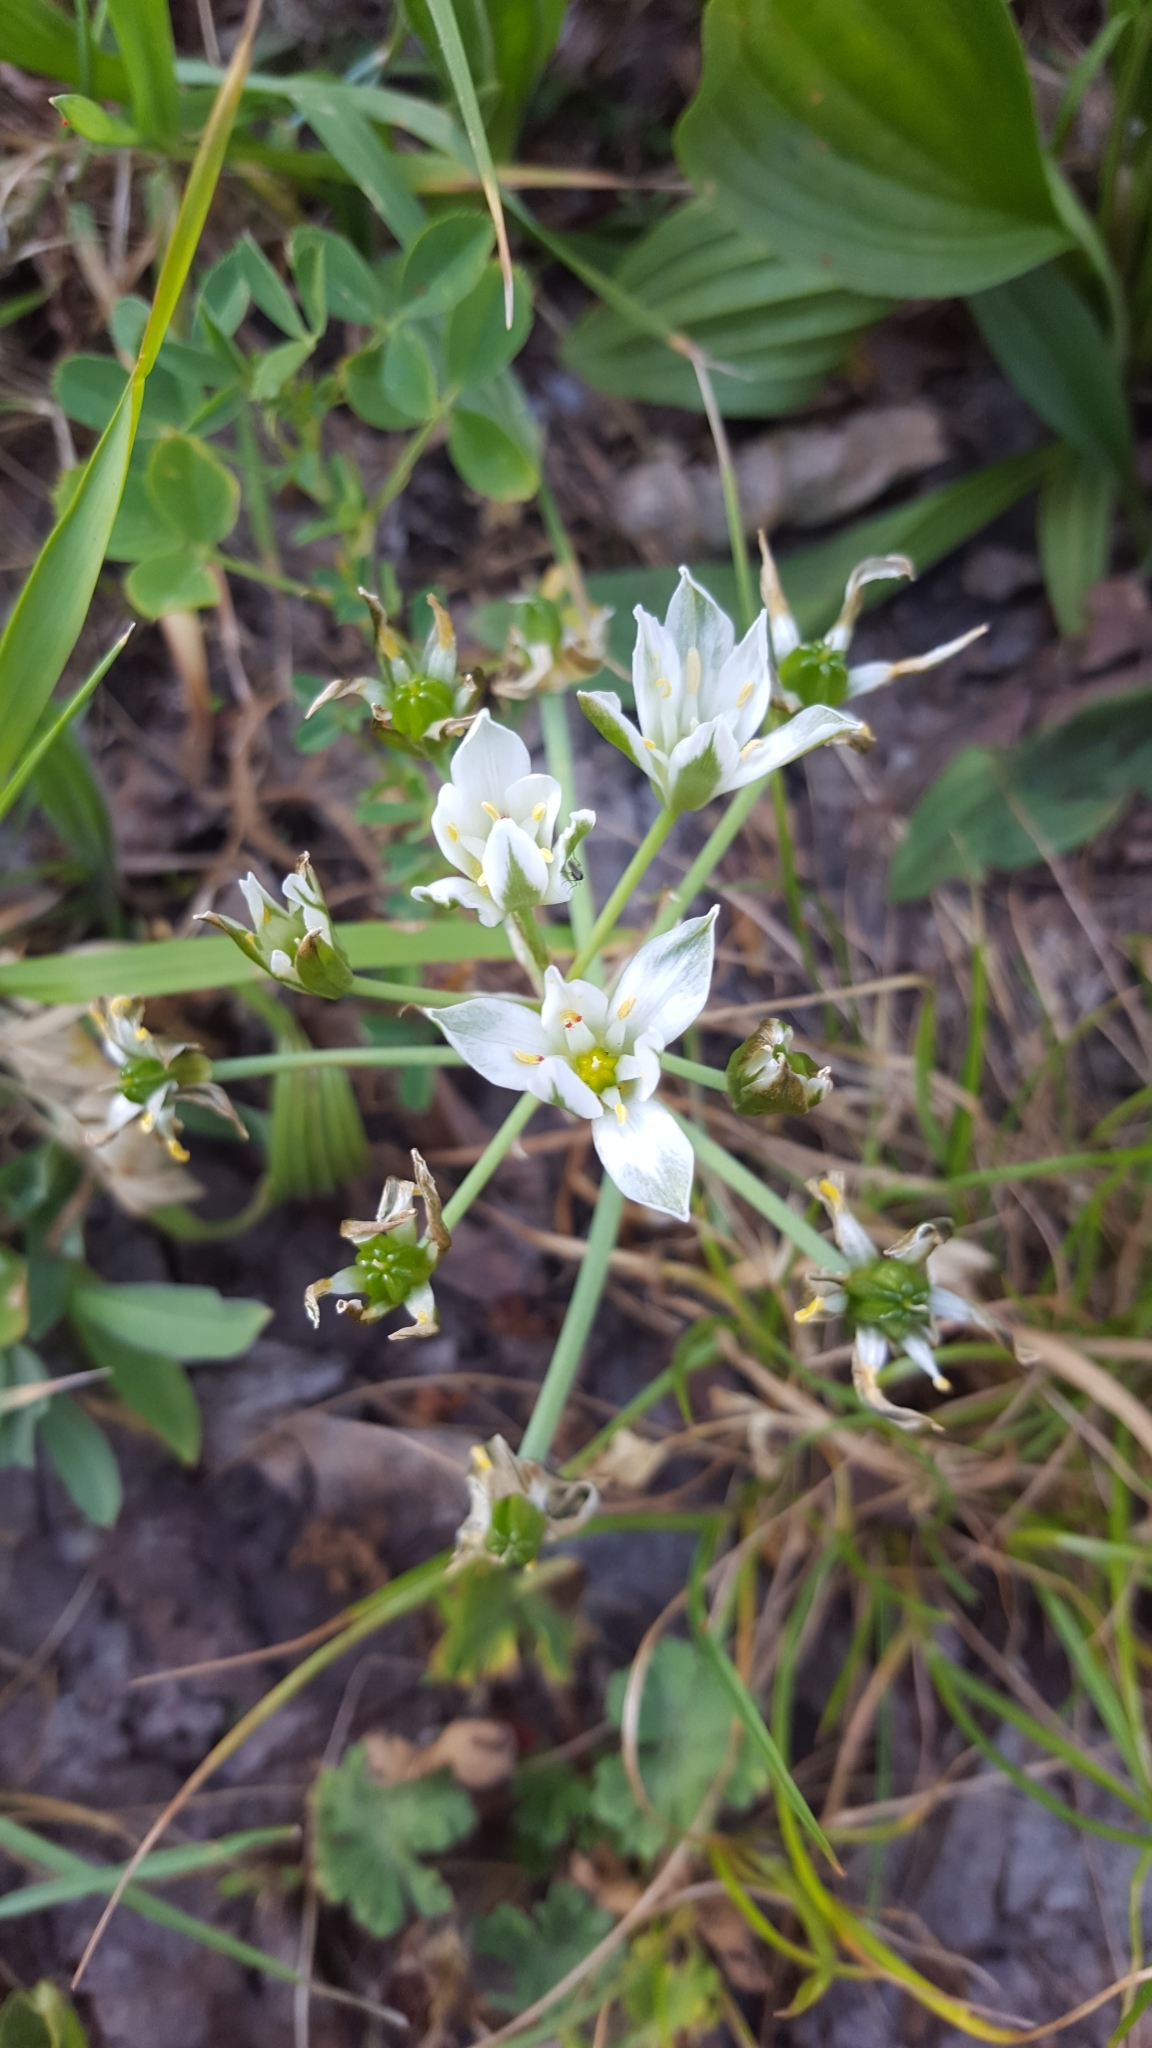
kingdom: Plantae
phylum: Tracheophyta
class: Liliopsida
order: Asparagales
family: Asparagaceae
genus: Ornithogalum
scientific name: Ornithogalum umbellatum
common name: Garden star-of-bethlehem
